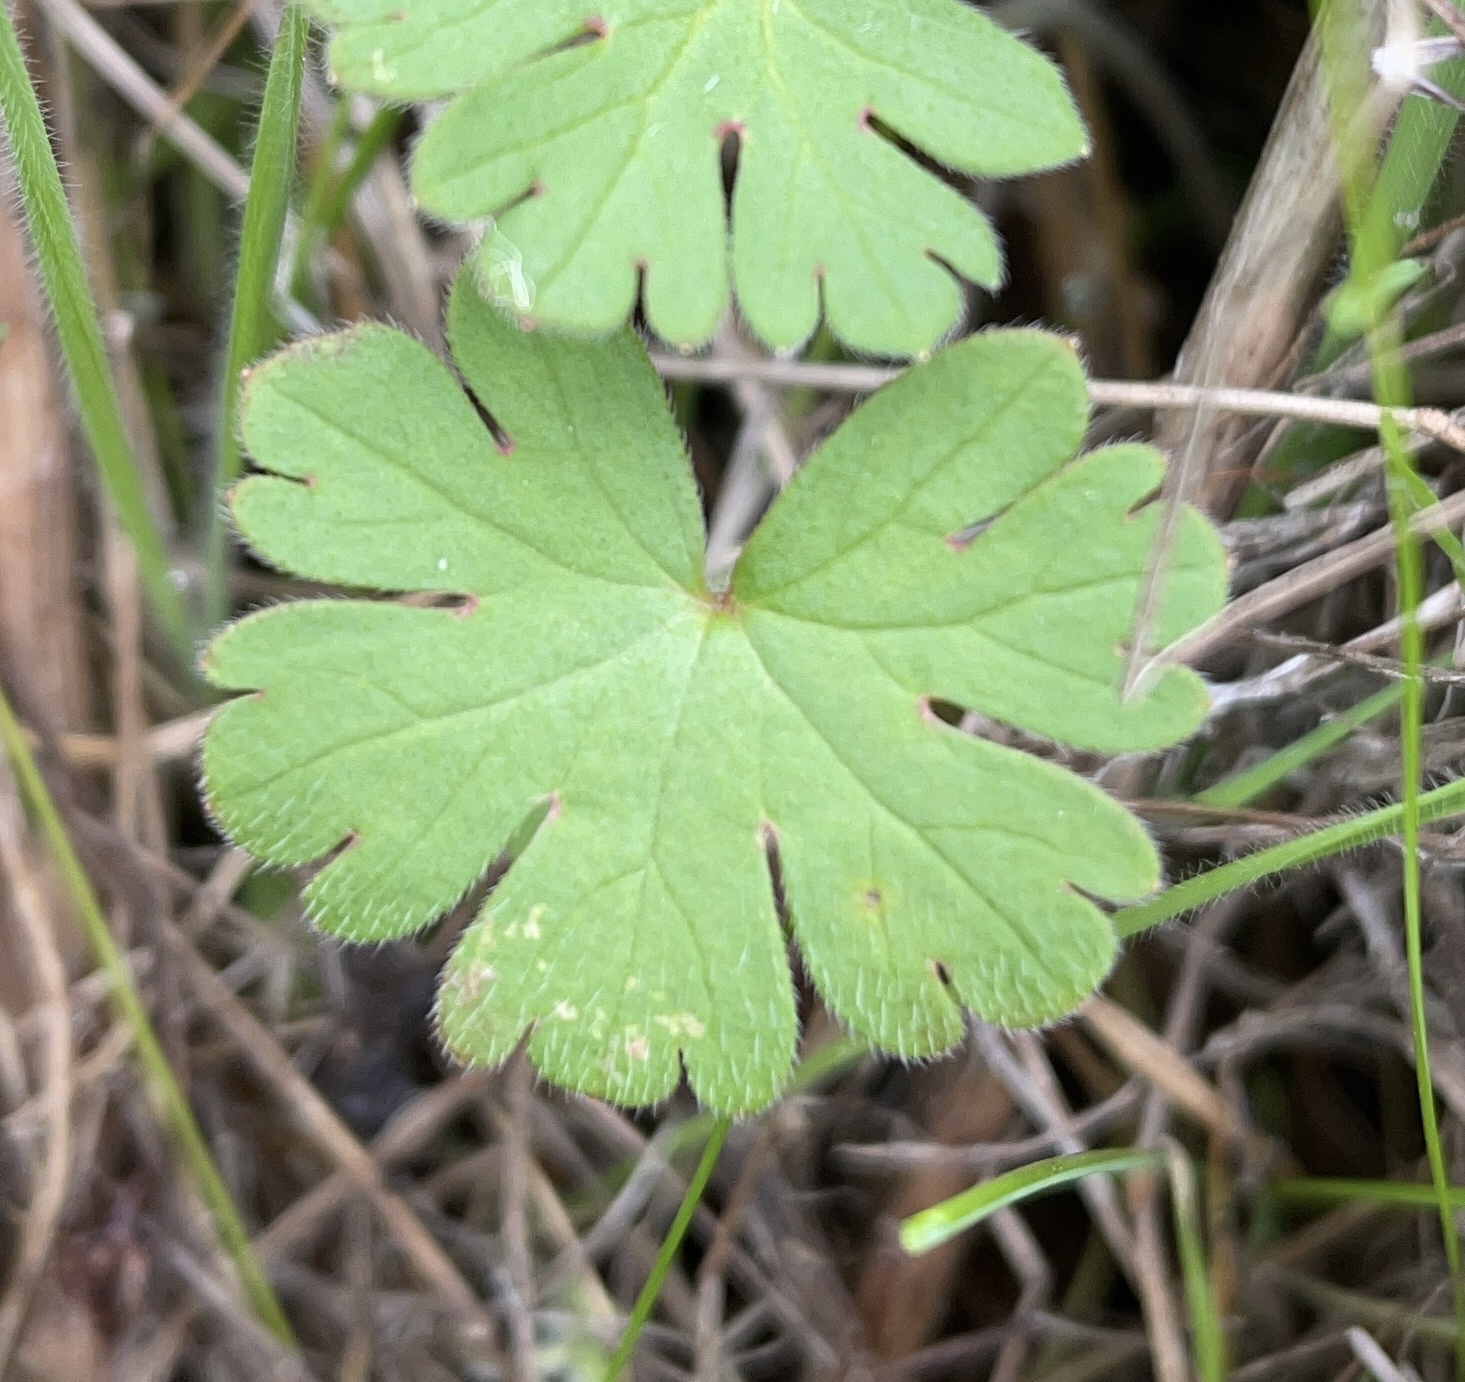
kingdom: Plantae
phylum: Tracheophyta
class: Magnoliopsida
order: Geraniales
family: Geraniaceae
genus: Geranium
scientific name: Geranium
